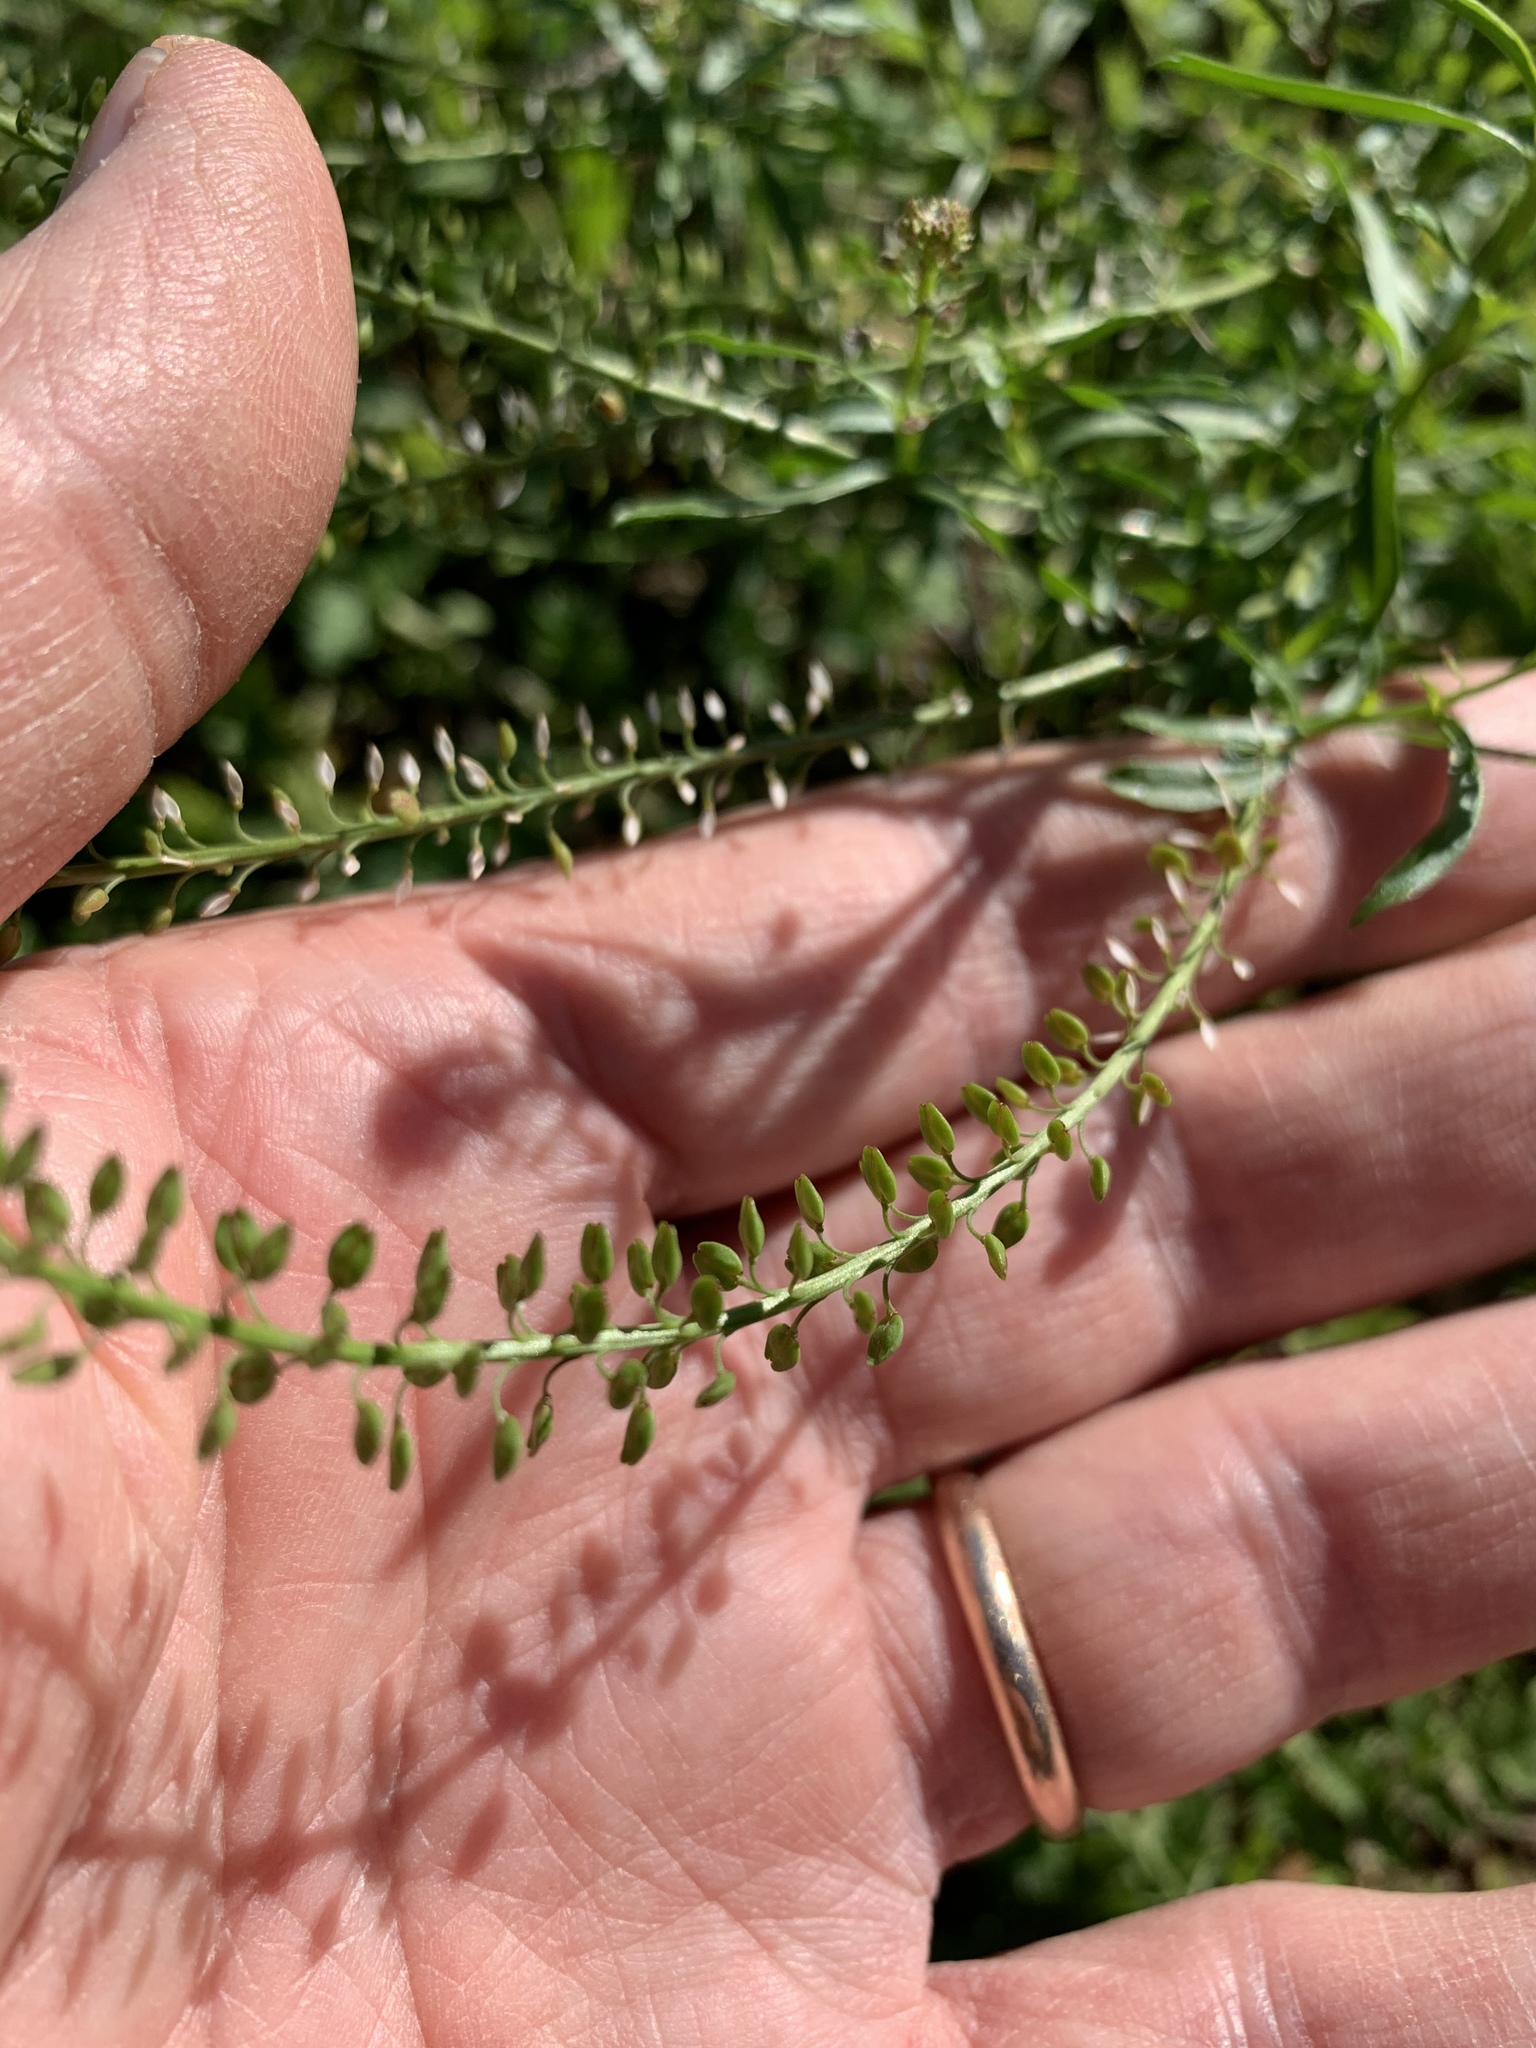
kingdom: Plantae
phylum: Tracheophyta
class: Magnoliopsida
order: Brassicales
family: Brassicaceae
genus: Lepidium
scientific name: Lepidium africanum
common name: African pepperwort
